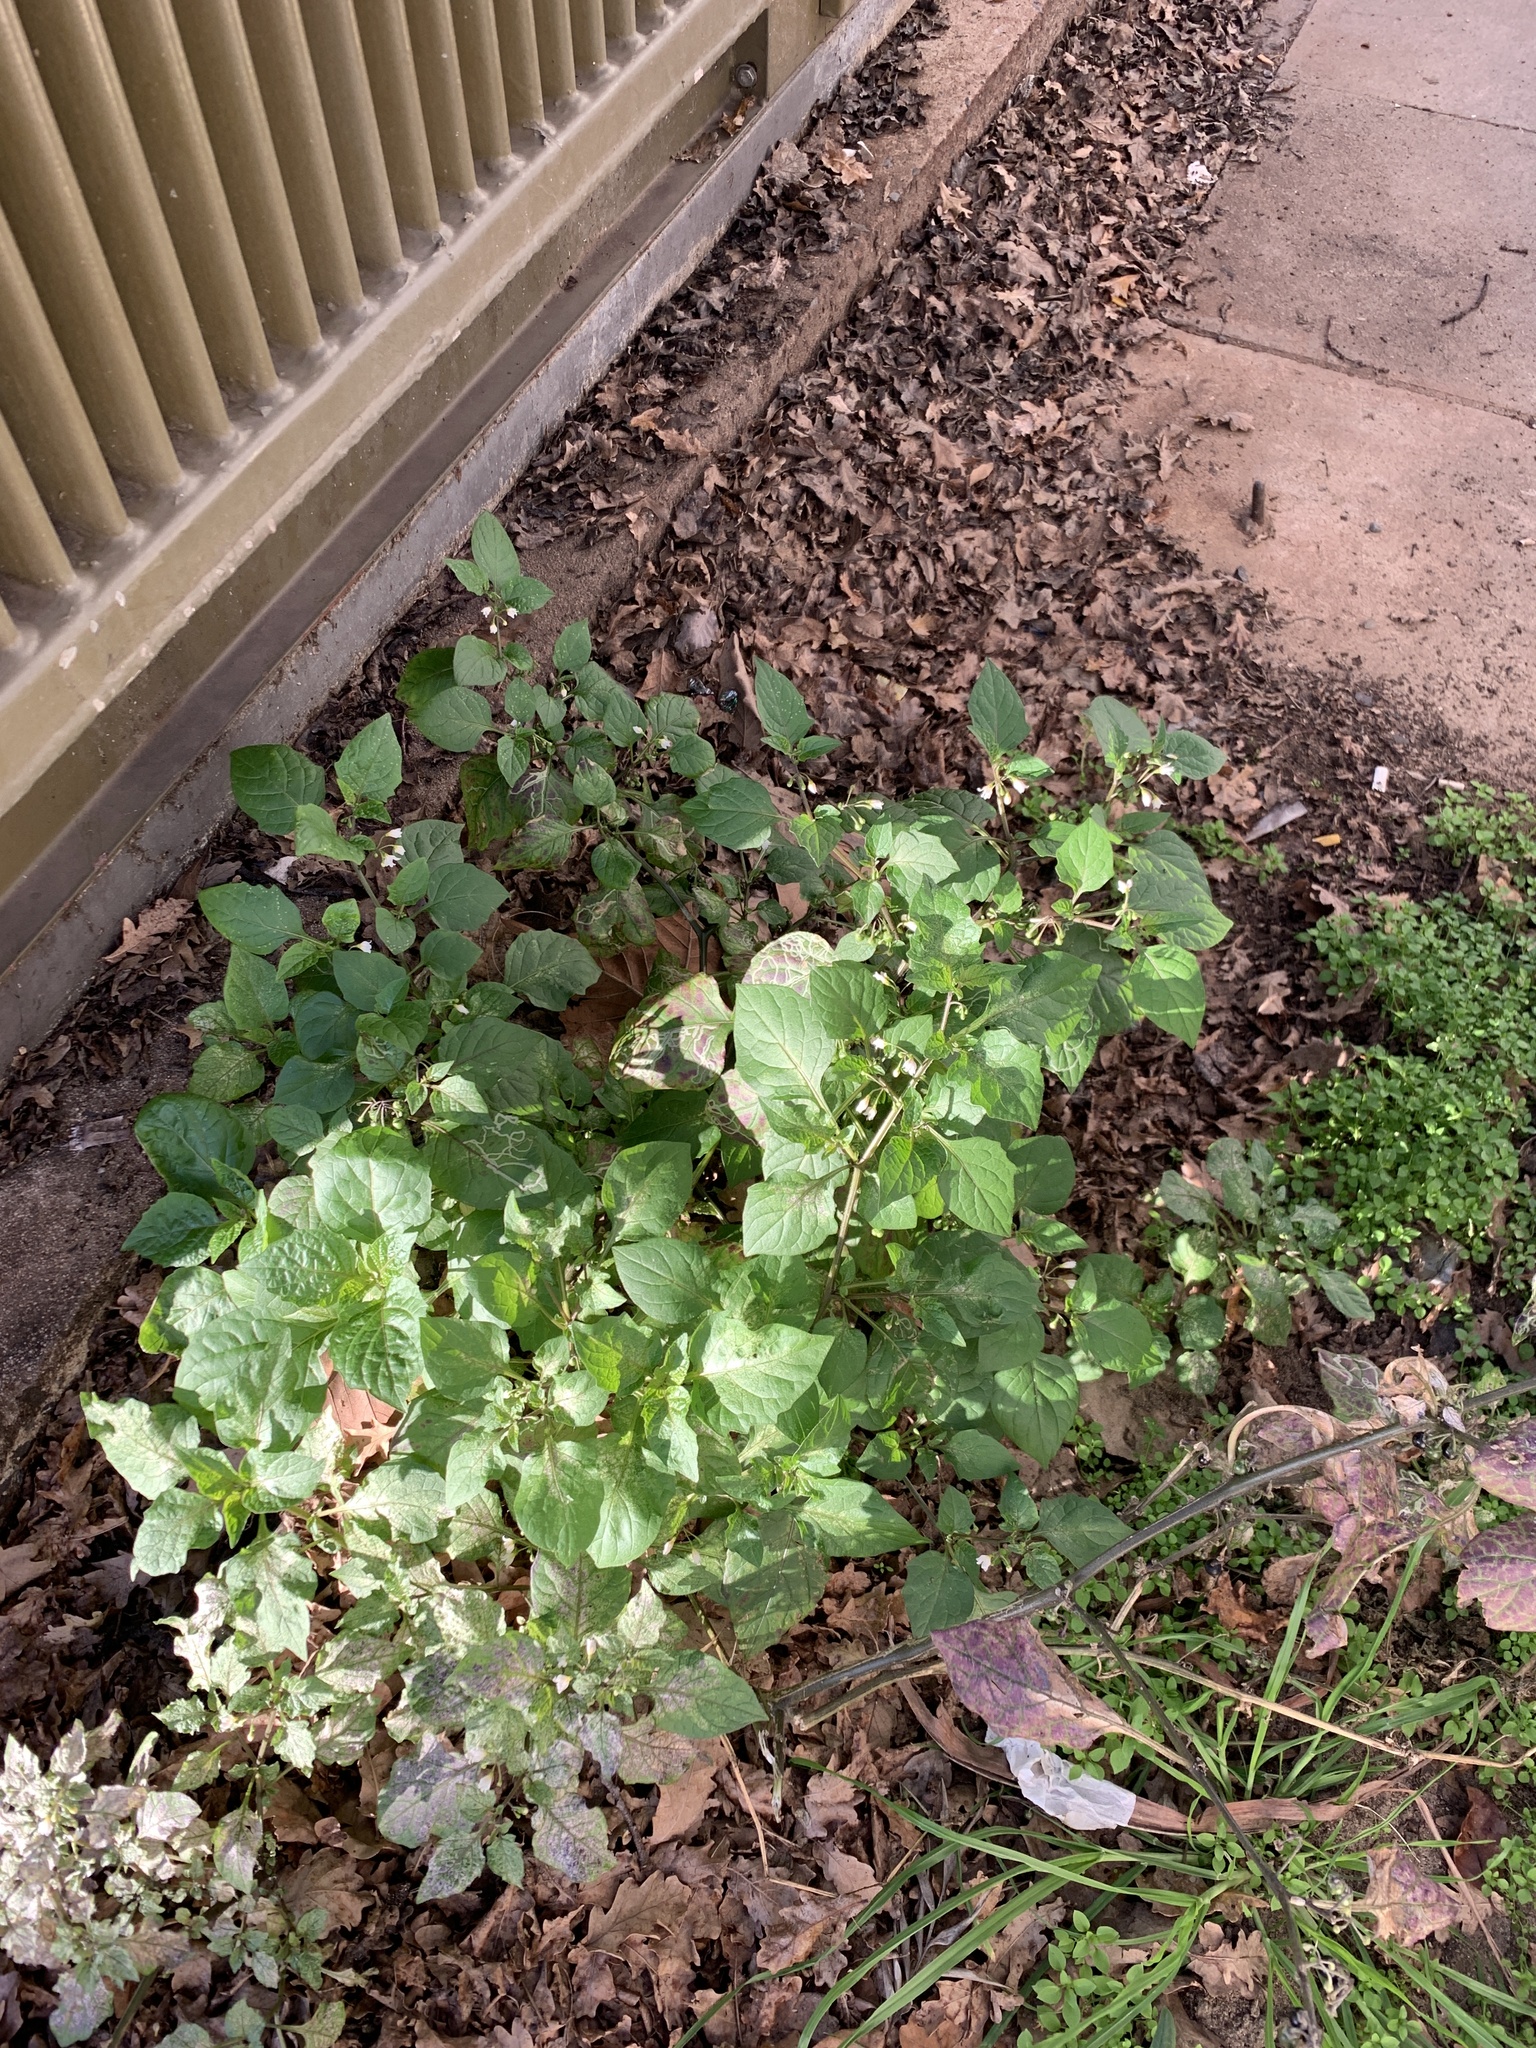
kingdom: Plantae
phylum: Tracheophyta
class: Magnoliopsida
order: Solanales
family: Solanaceae
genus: Solanum
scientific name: Solanum nigrum
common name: Black nightshade
